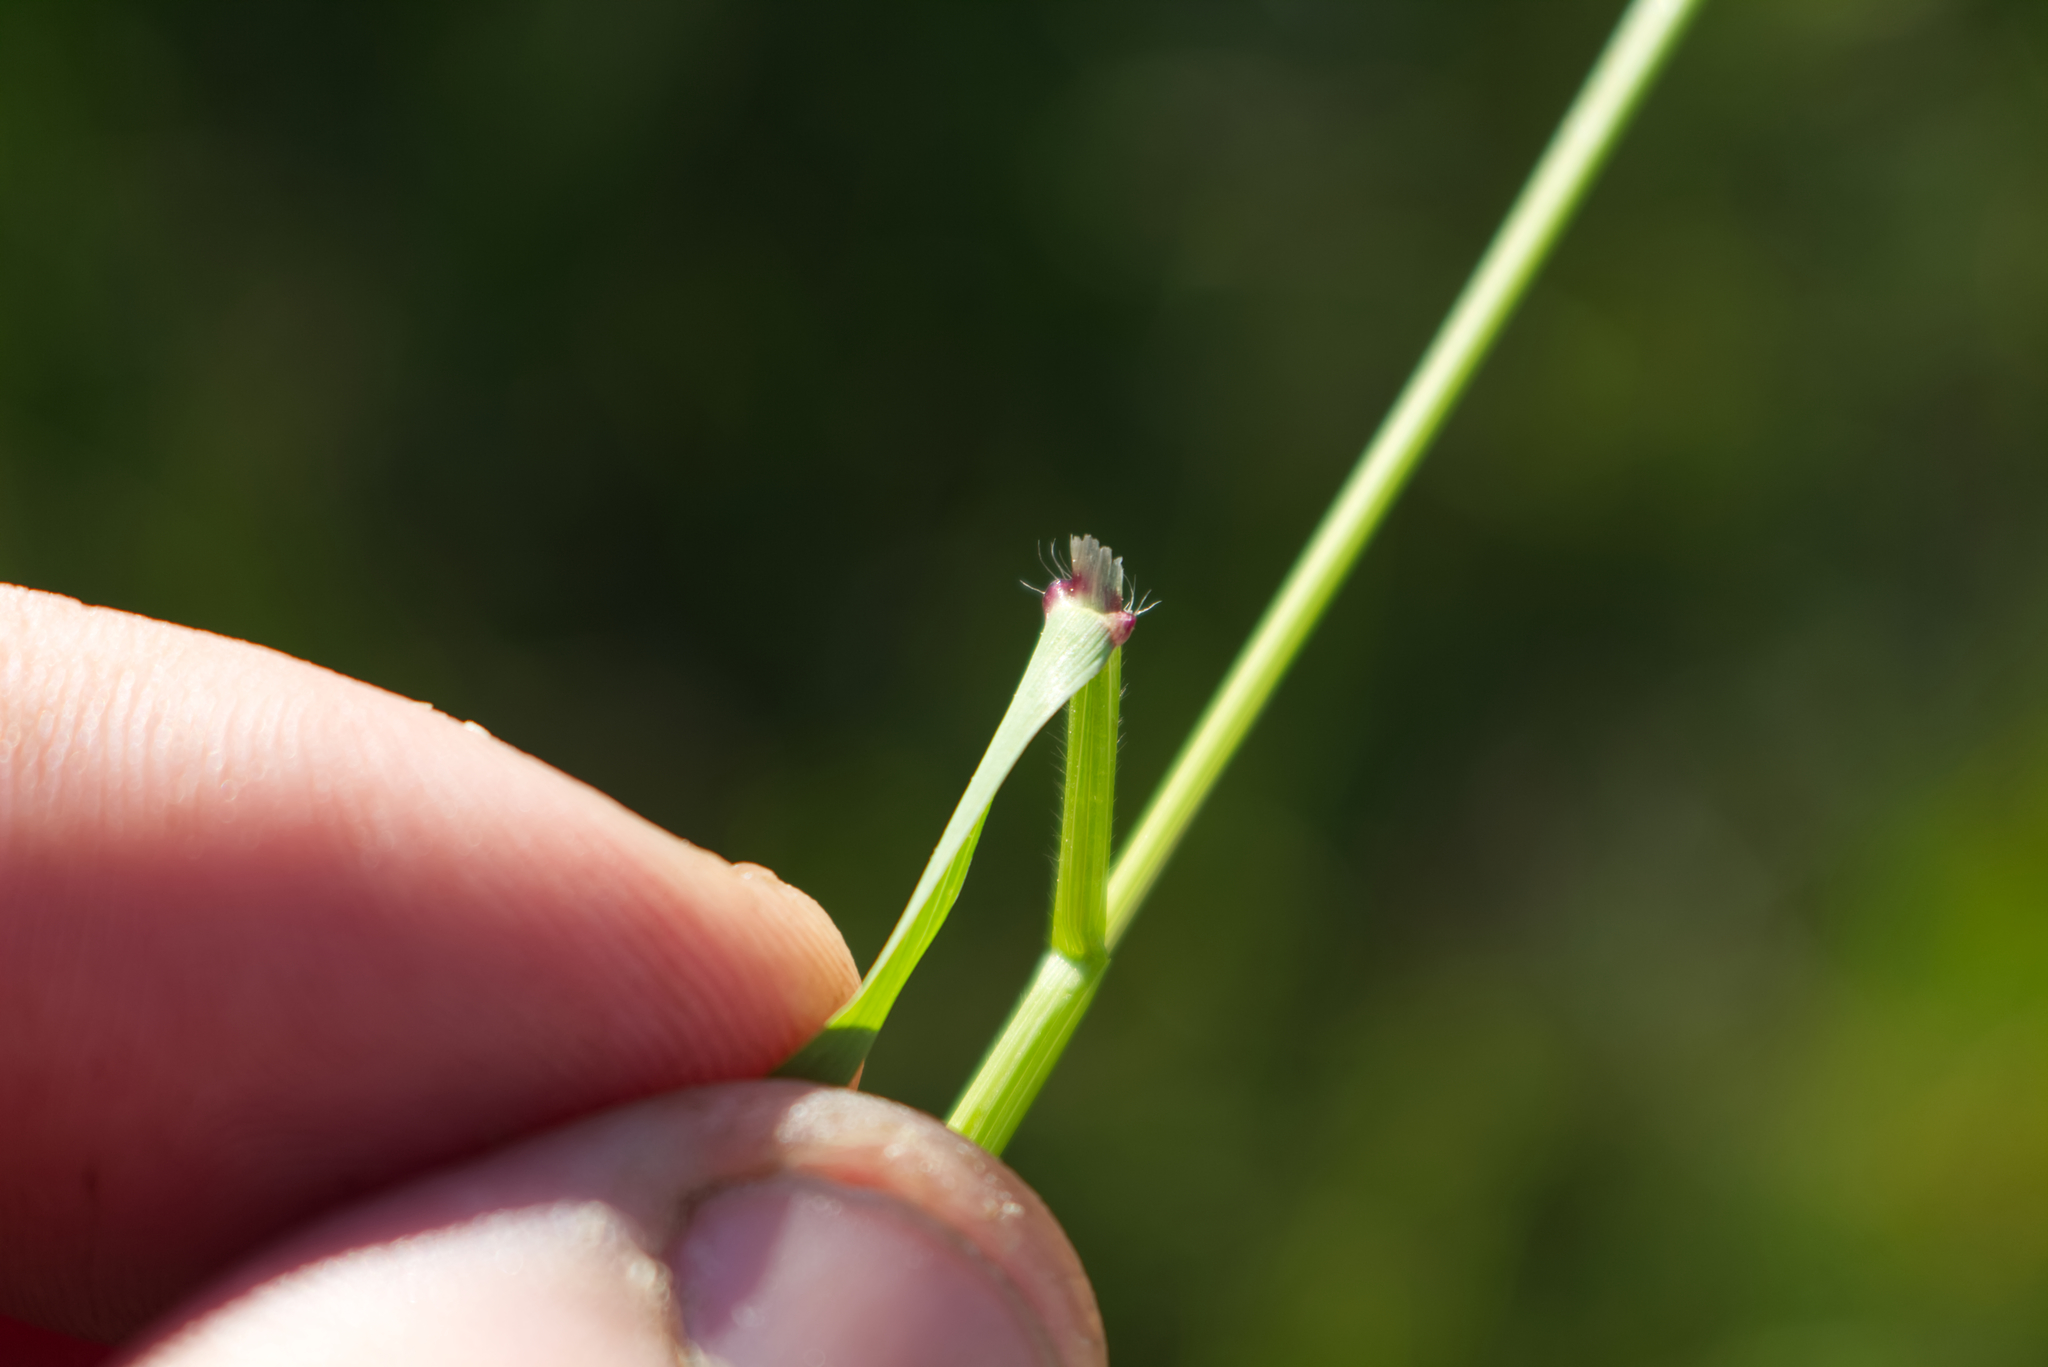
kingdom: Plantae
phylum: Tracheophyta
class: Liliopsida
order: Poales
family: Poaceae
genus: Anthoxanthum
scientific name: Anthoxanthum odoratum
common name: Sweet vernalgrass
